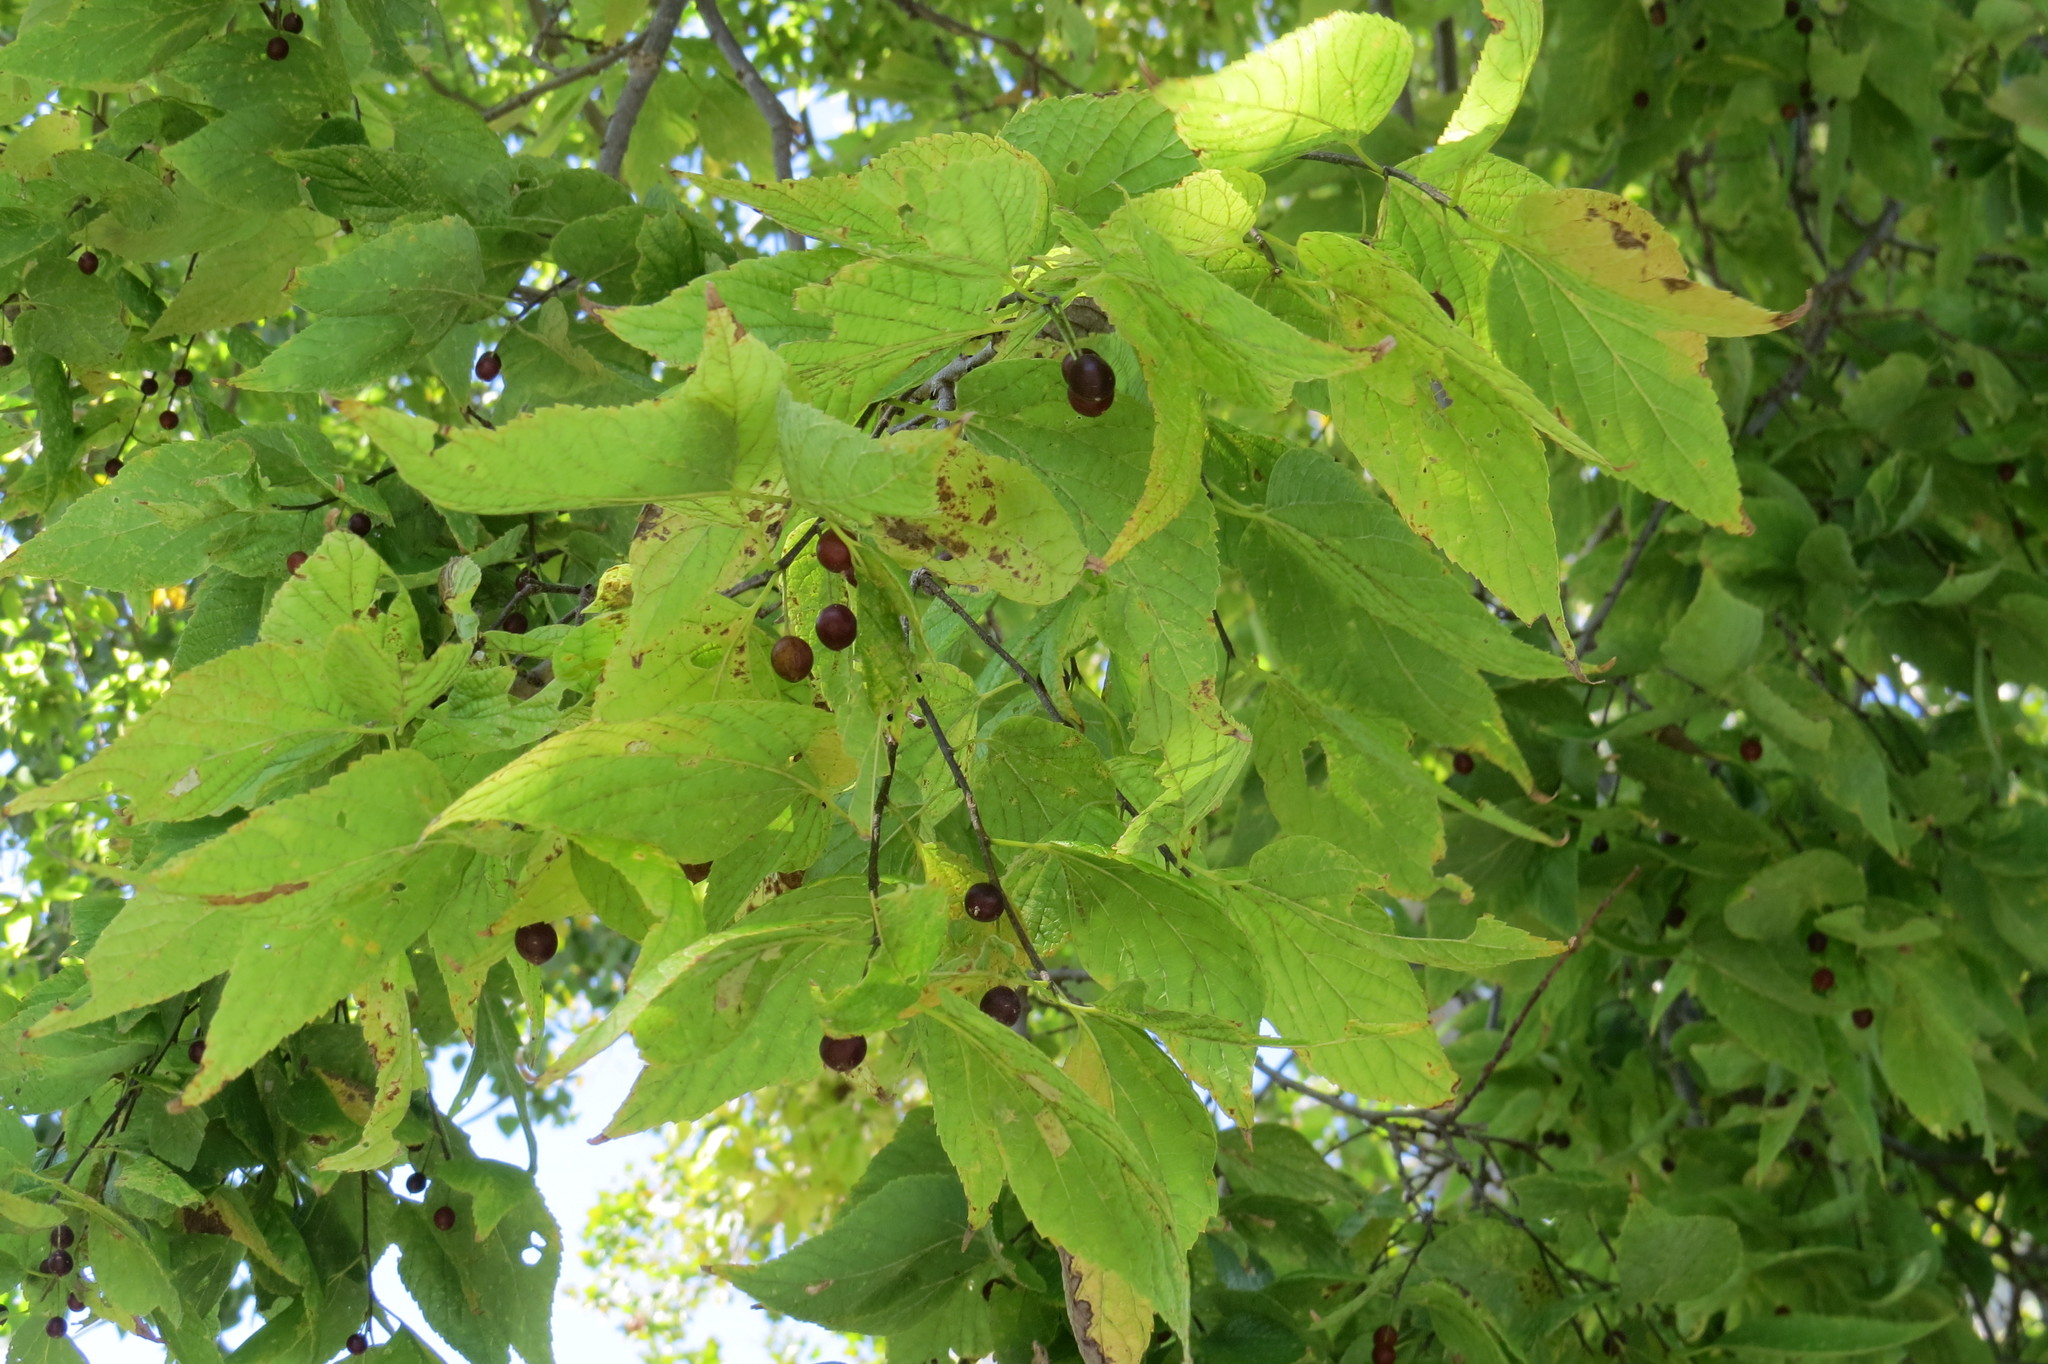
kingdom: Plantae
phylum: Tracheophyta
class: Magnoliopsida
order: Rosales
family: Cannabaceae
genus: Celtis
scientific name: Celtis occidentalis
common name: Common hackberry
